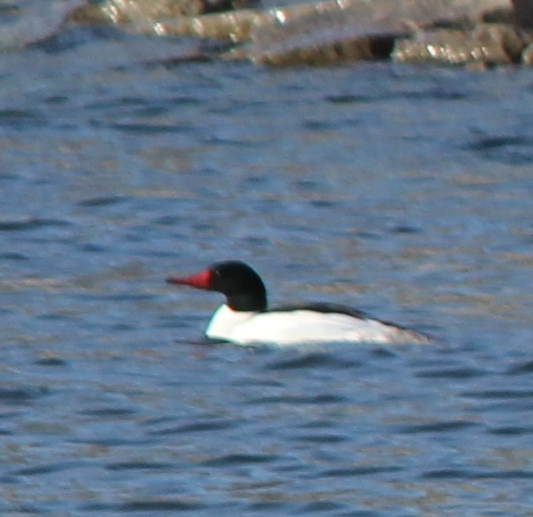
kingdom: Animalia
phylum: Chordata
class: Aves
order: Anseriformes
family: Anatidae
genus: Mergus
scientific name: Mergus merganser
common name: Common merganser
